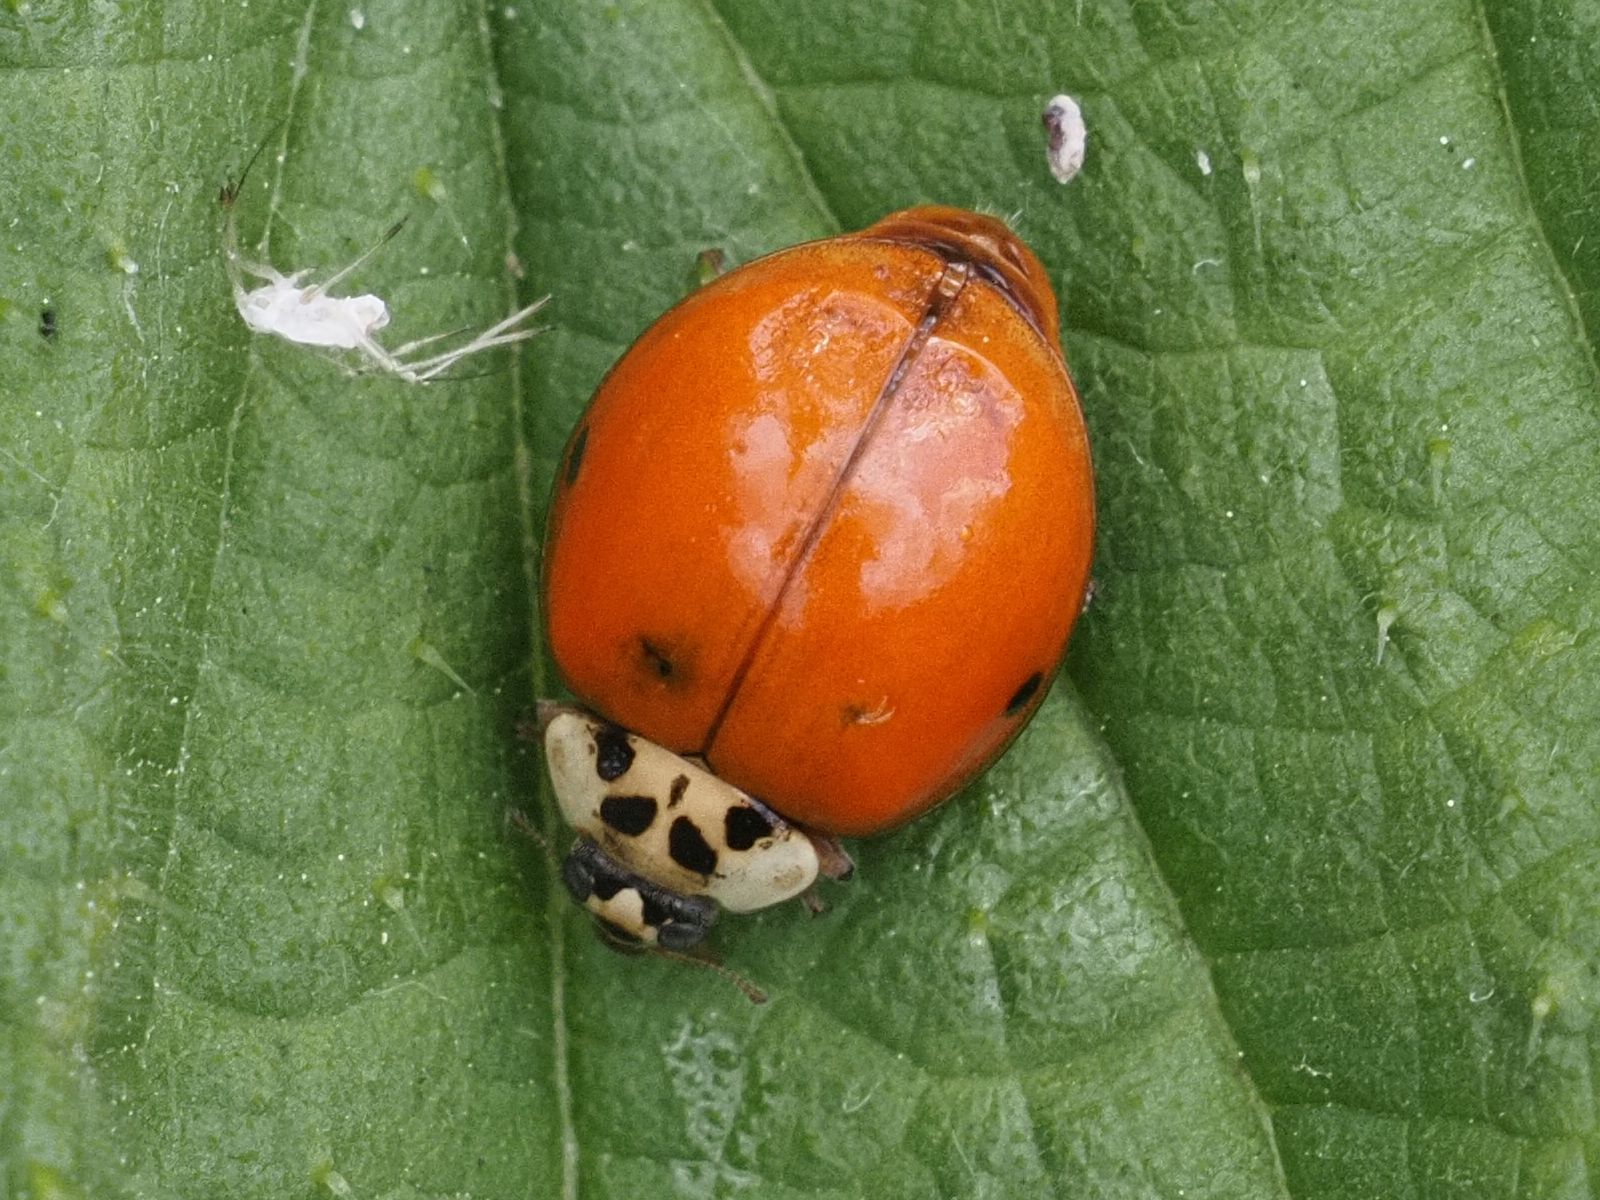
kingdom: Animalia
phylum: Arthropoda
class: Insecta
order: Coleoptera
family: Coccinellidae
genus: Harmonia
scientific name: Harmonia axyridis
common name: Harlequin ladybird
